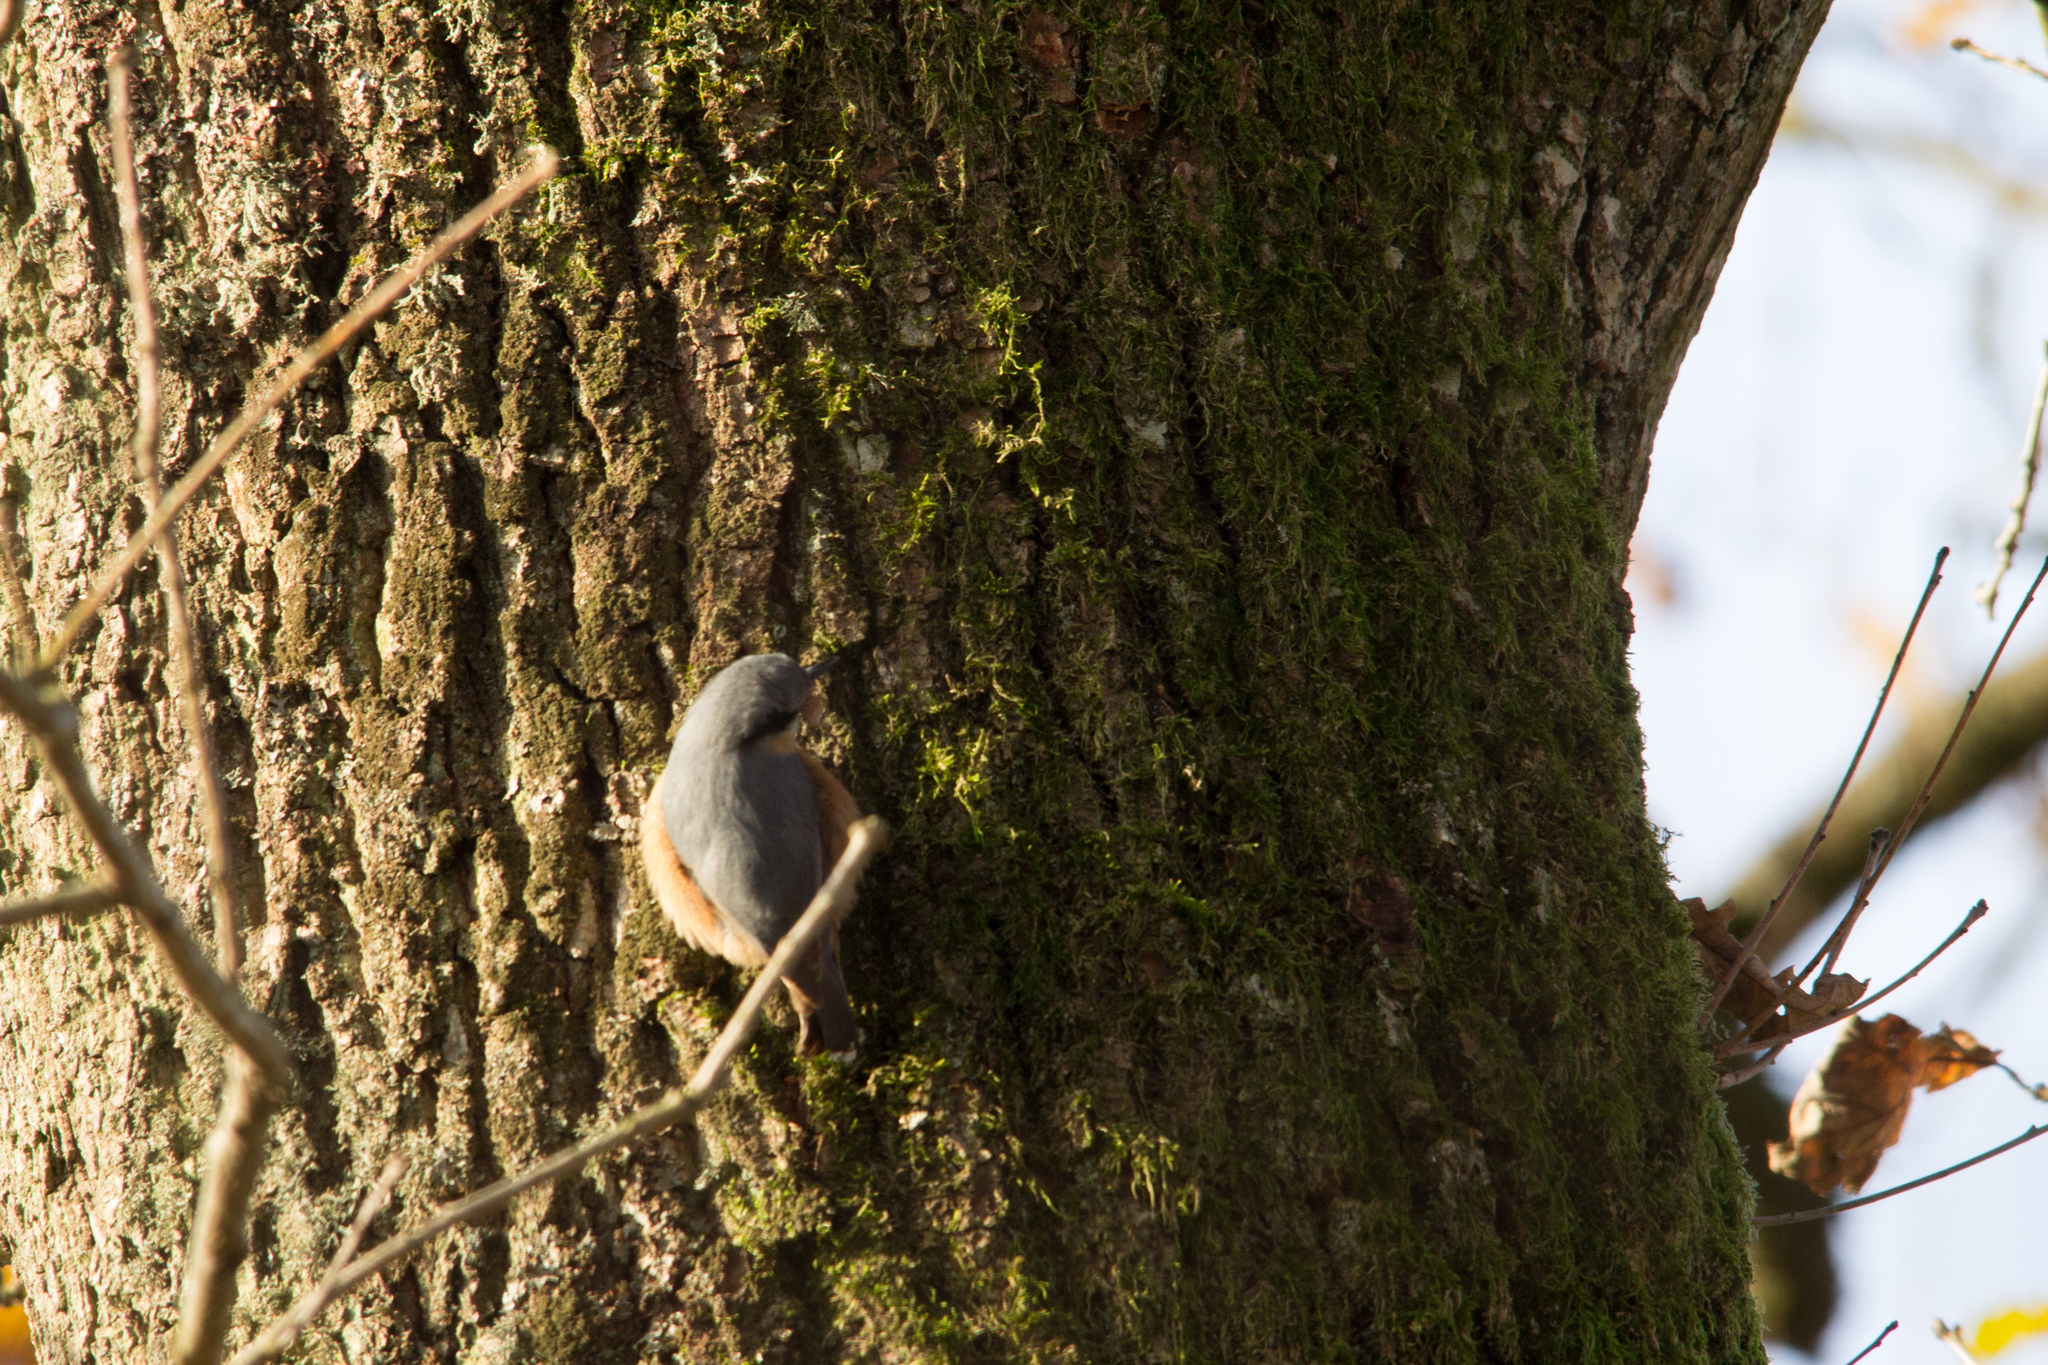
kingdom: Animalia
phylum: Chordata
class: Aves
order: Passeriformes
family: Sittidae
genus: Sitta
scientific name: Sitta europaea
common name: Eurasian nuthatch
